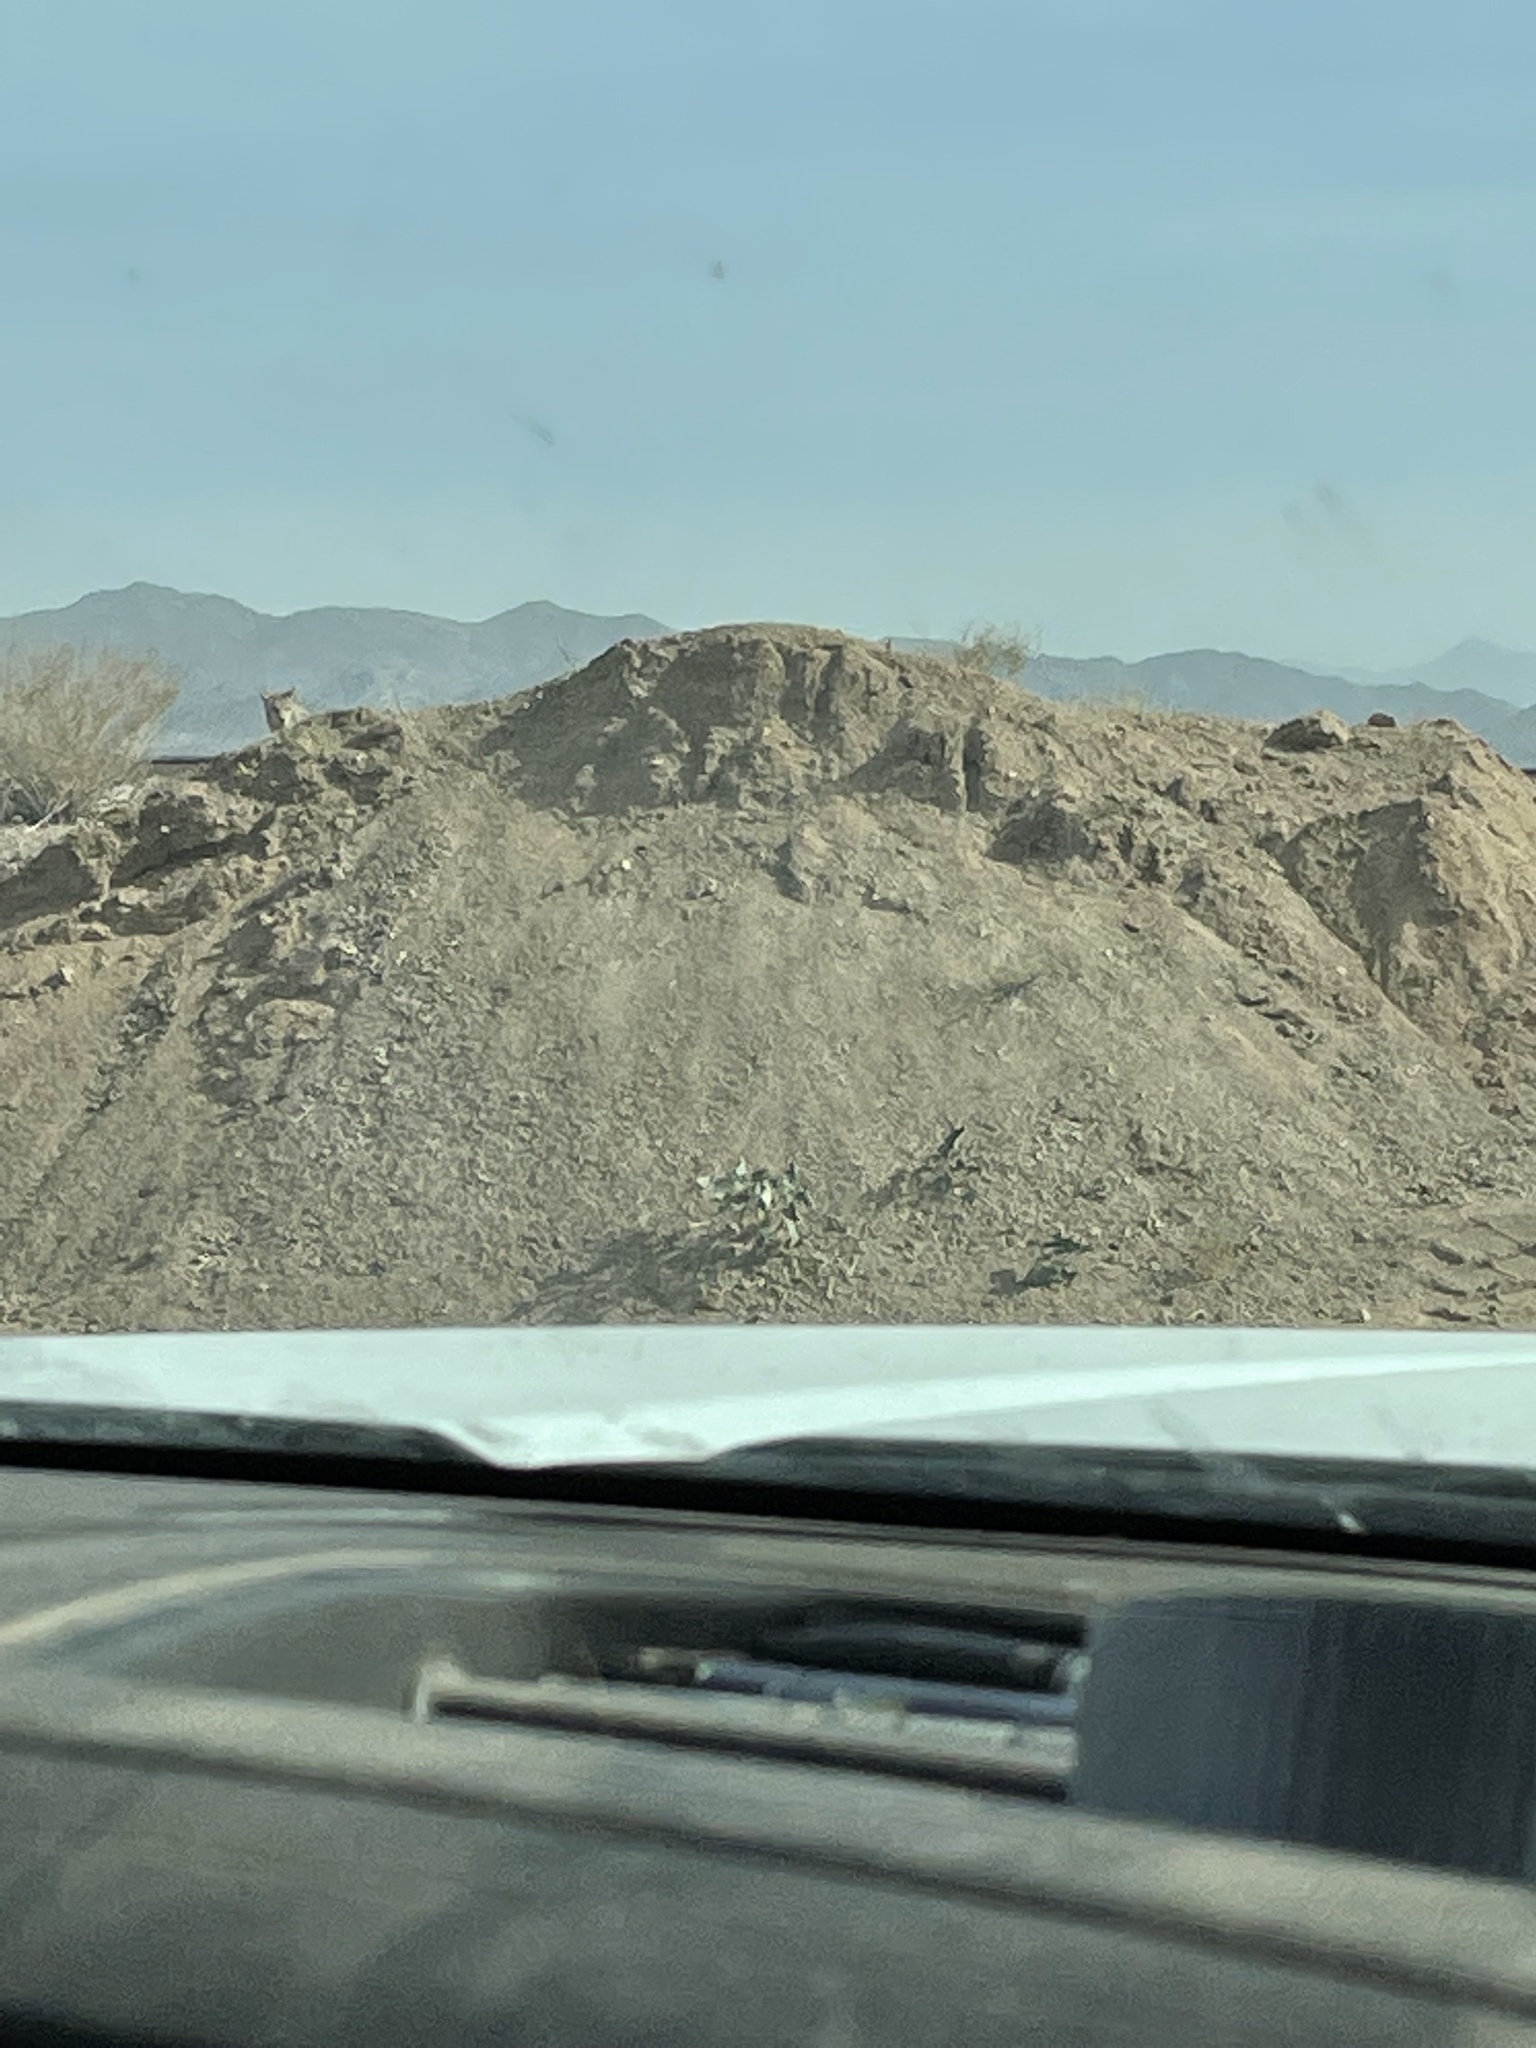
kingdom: Animalia
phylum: Chordata
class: Mammalia
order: Carnivora
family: Canidae
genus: Canis
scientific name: Canis latrans
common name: Coyote
